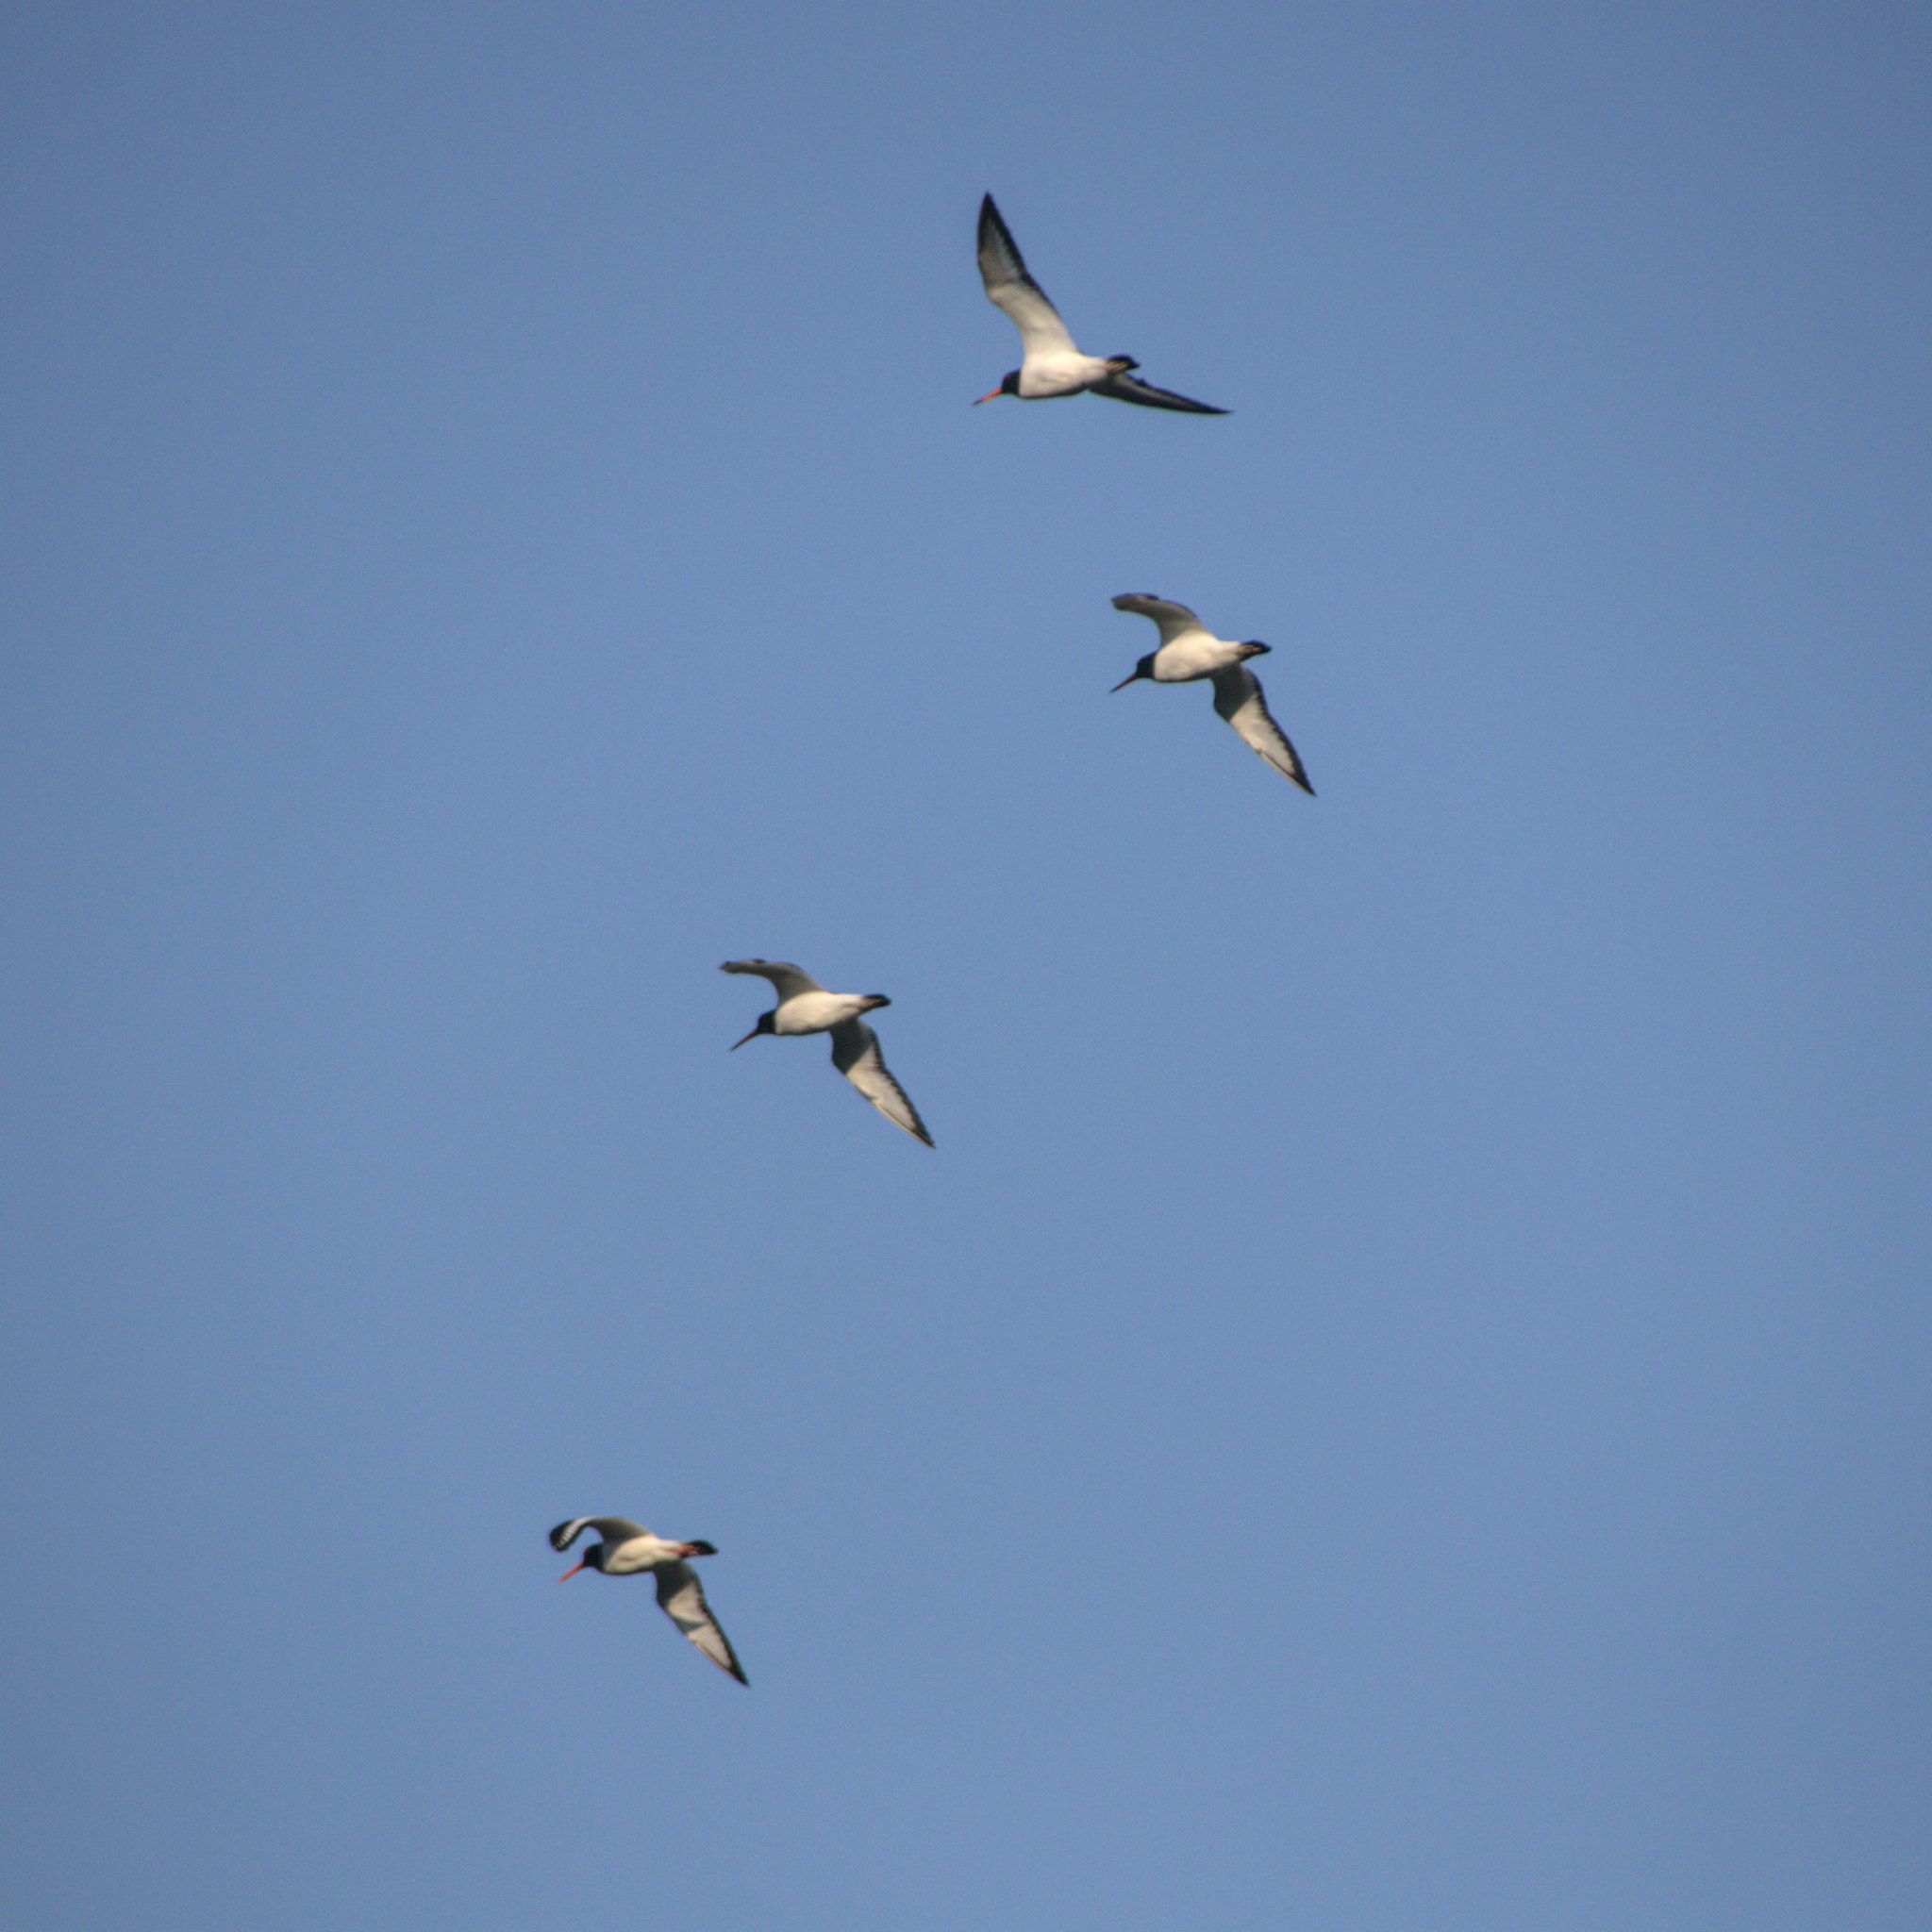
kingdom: Animalia
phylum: Chordata
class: Aves
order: Charadriiformes
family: Haematopodidae
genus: Haematopus
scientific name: Haematopus ostralegus
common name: Eurasian oystercatcher
